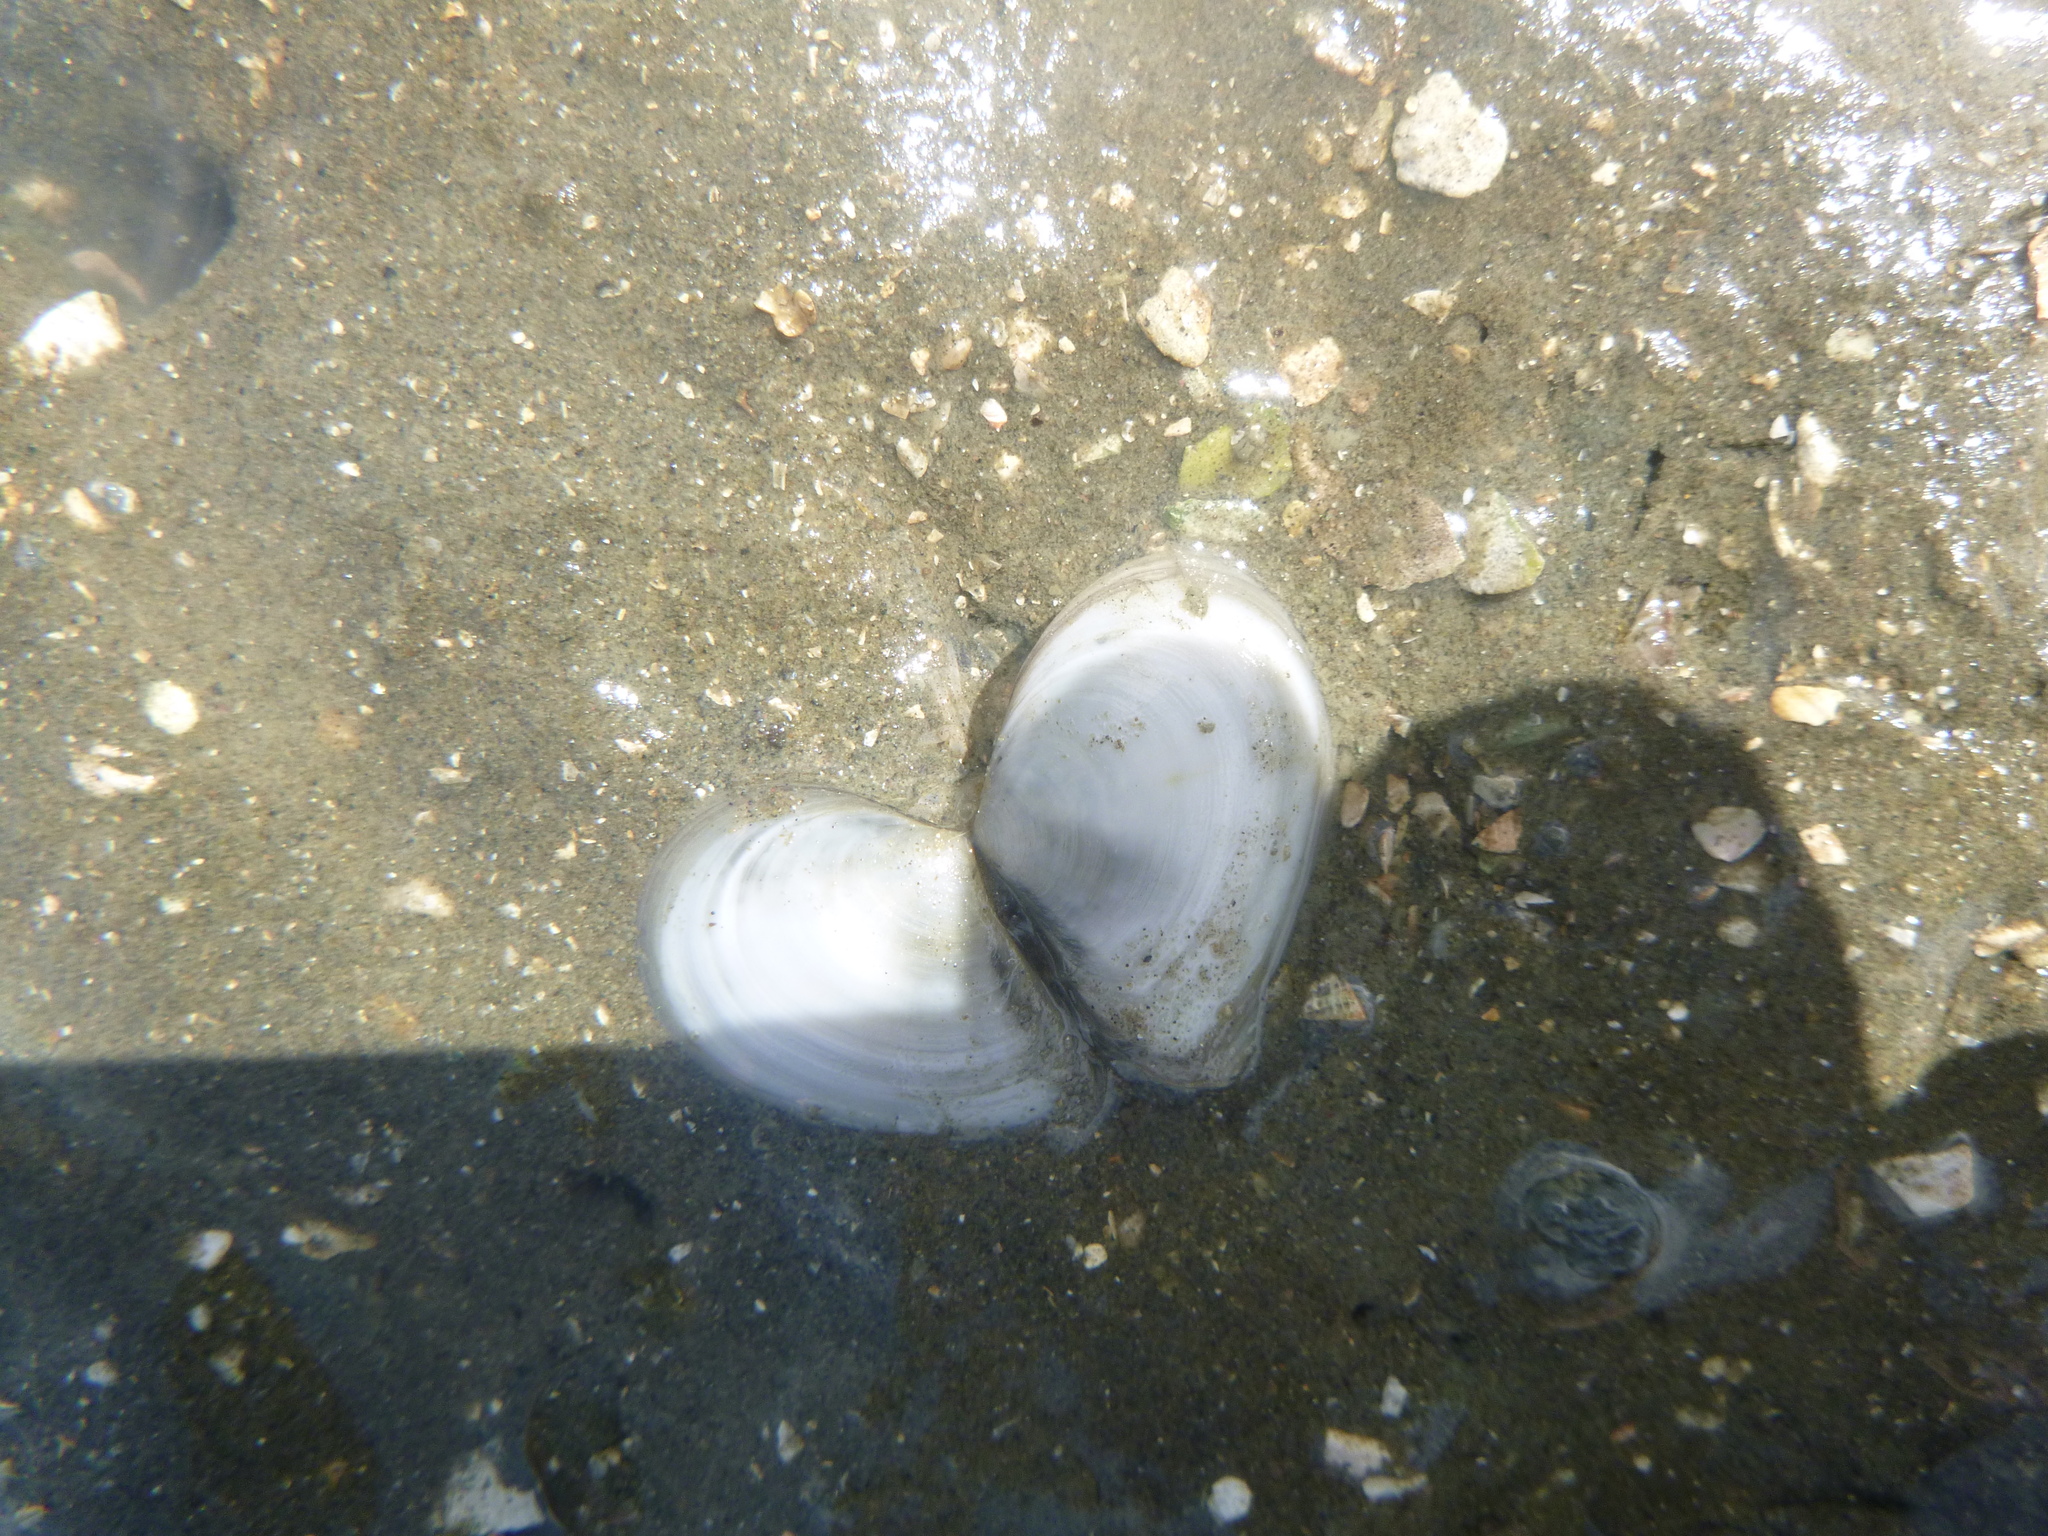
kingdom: Animalia
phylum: Mollusca
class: Bivalvia
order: Cardiida
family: Tellinidae
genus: Macomona
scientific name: Macomona liliana
